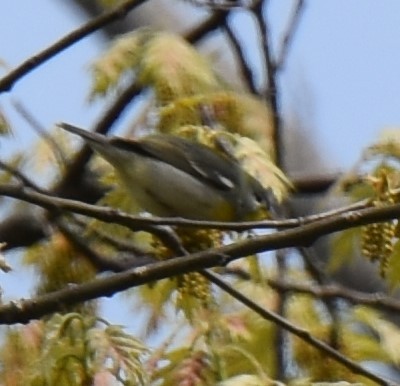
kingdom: Animalia
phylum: Chordata
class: Aves
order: Passeriformes
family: Parulidae
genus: Setophaga
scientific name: Setophaga americana
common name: Northern parula
